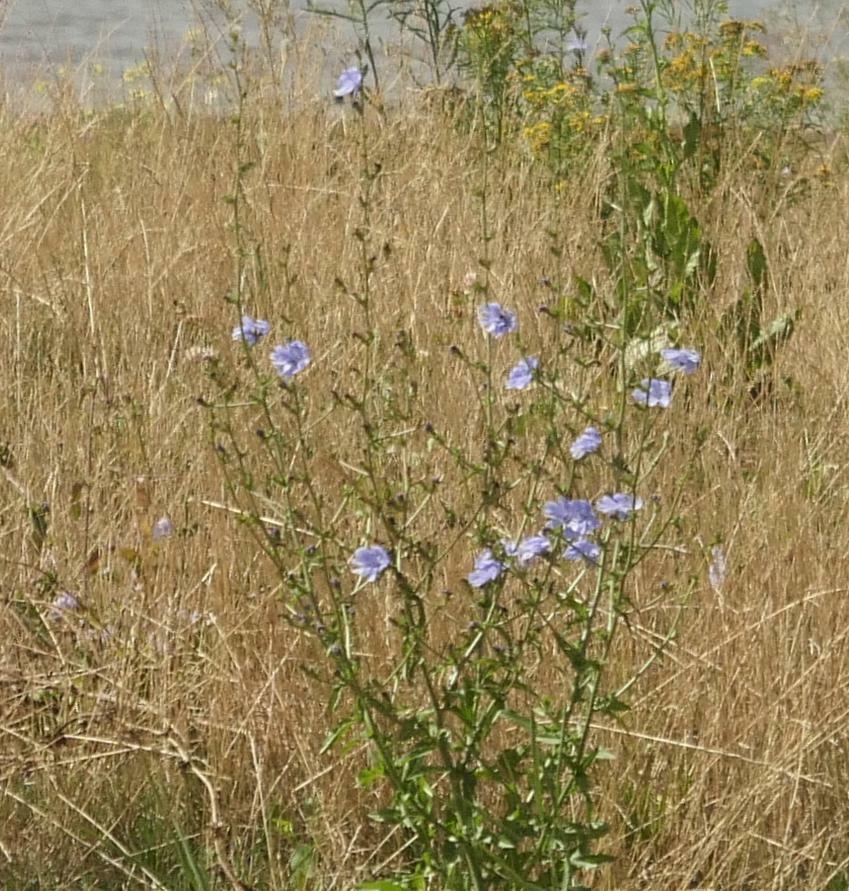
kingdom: Plantae
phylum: Tracheophyta
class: Magnoliopsida
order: Asterales
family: Asteraceae
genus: Cichorium
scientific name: Cichorium intybus
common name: Chicory
